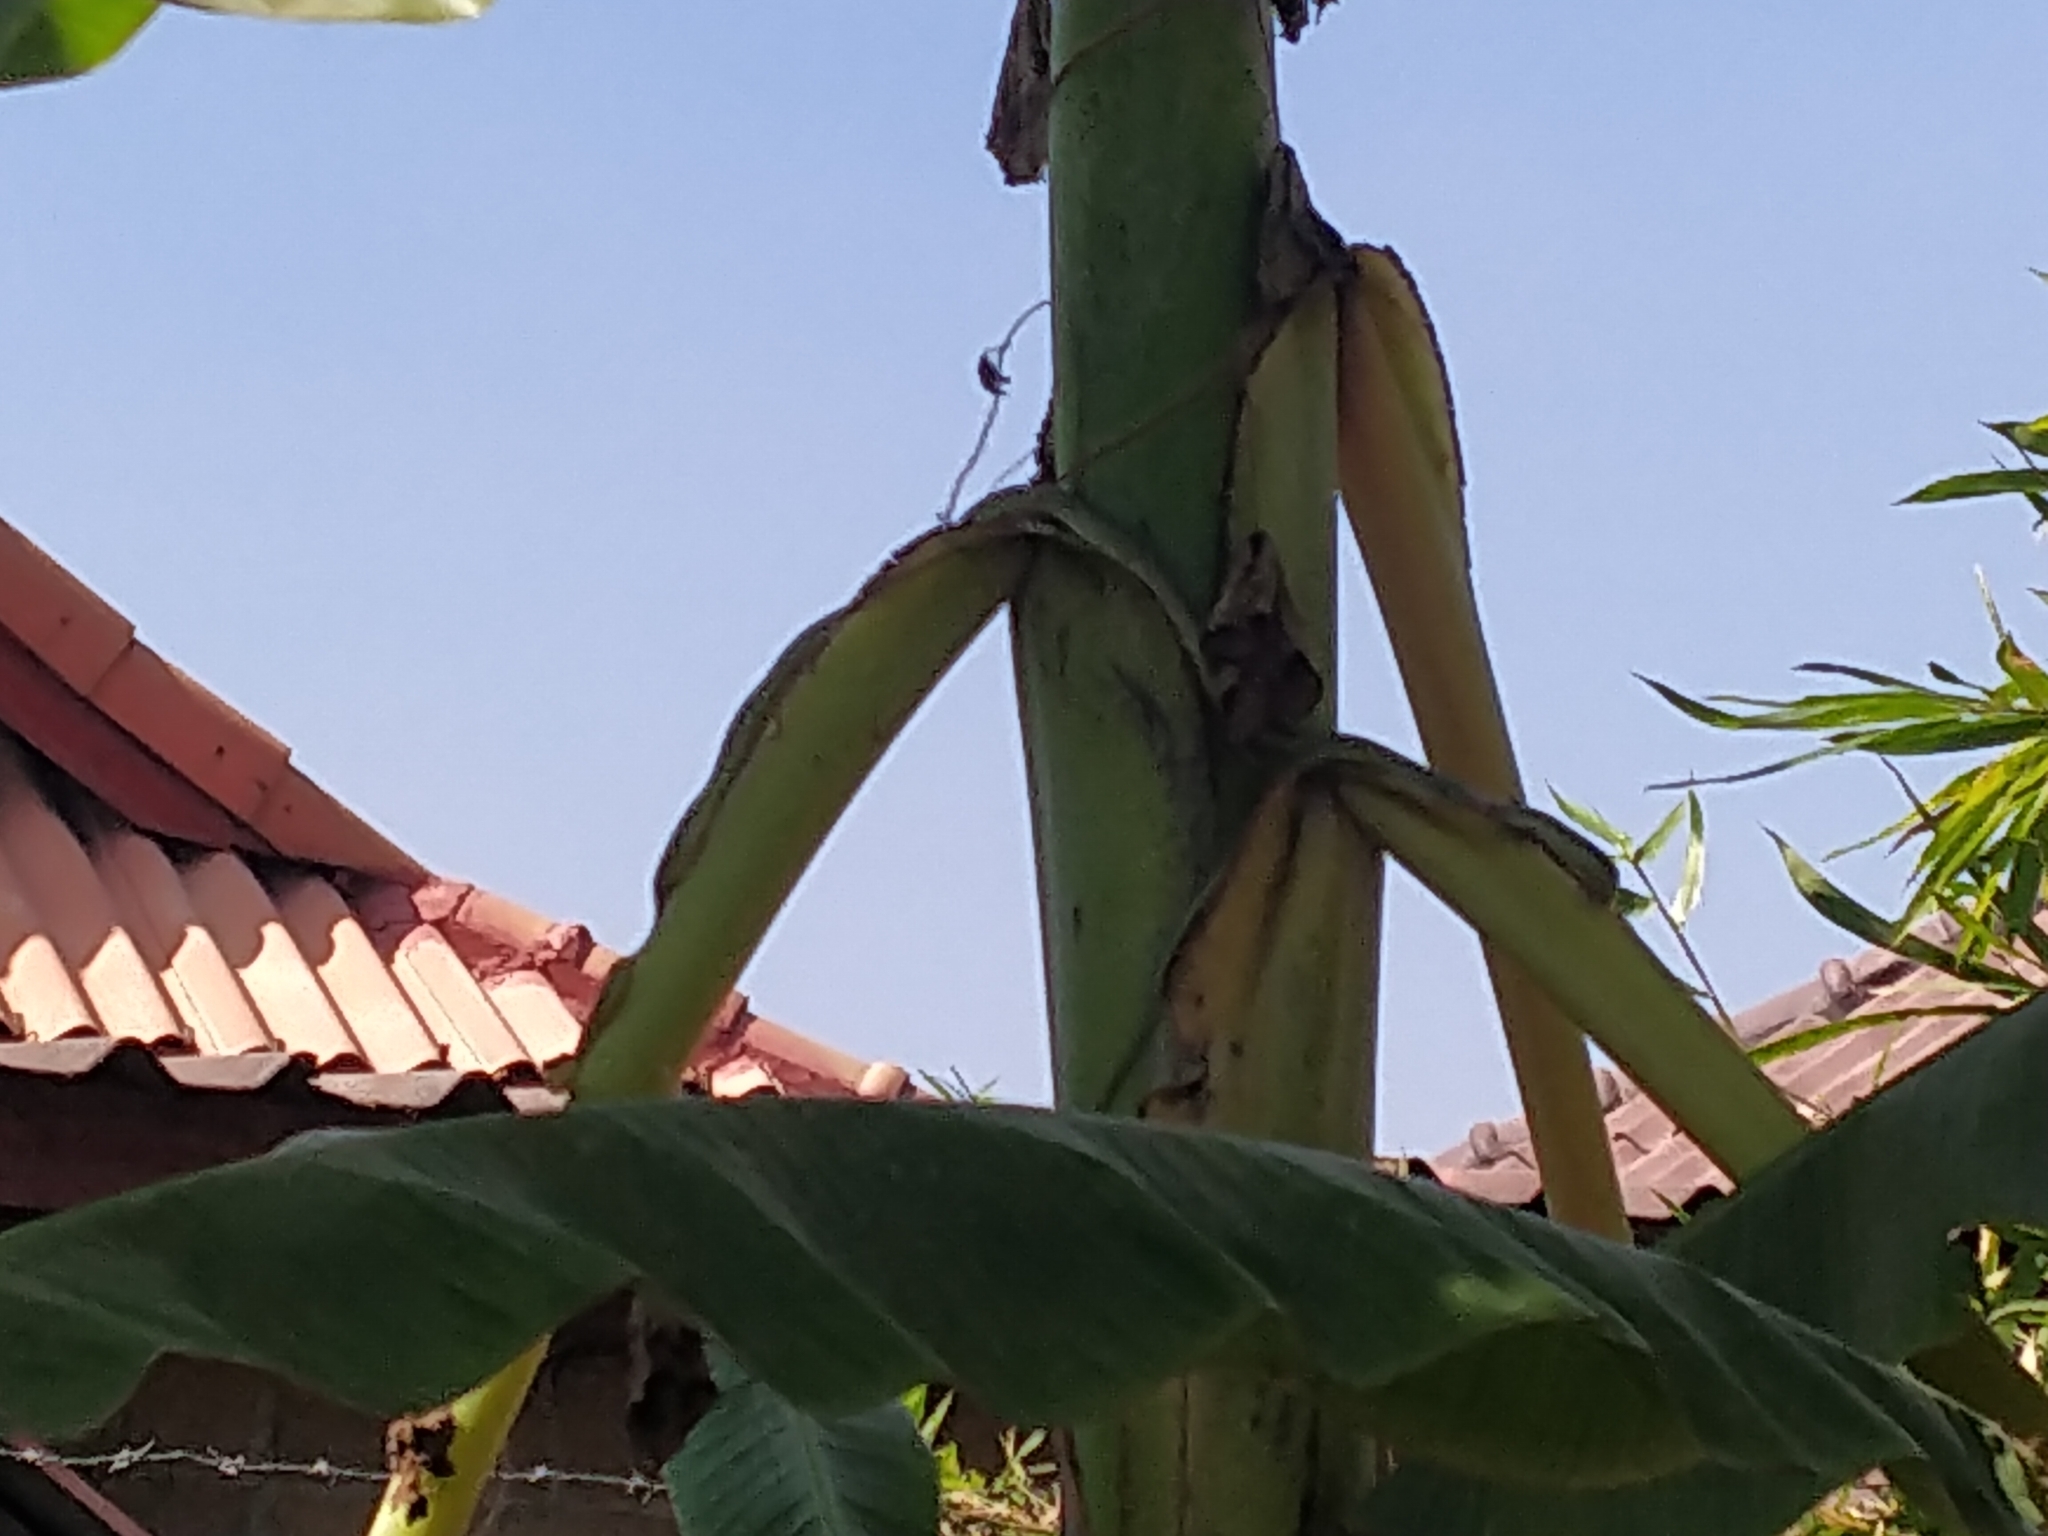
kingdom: Animalia
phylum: Chordata
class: Squamata
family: Colubridae
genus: Chrysopelea
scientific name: Chrysopelea ornata
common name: Golden flying snake
